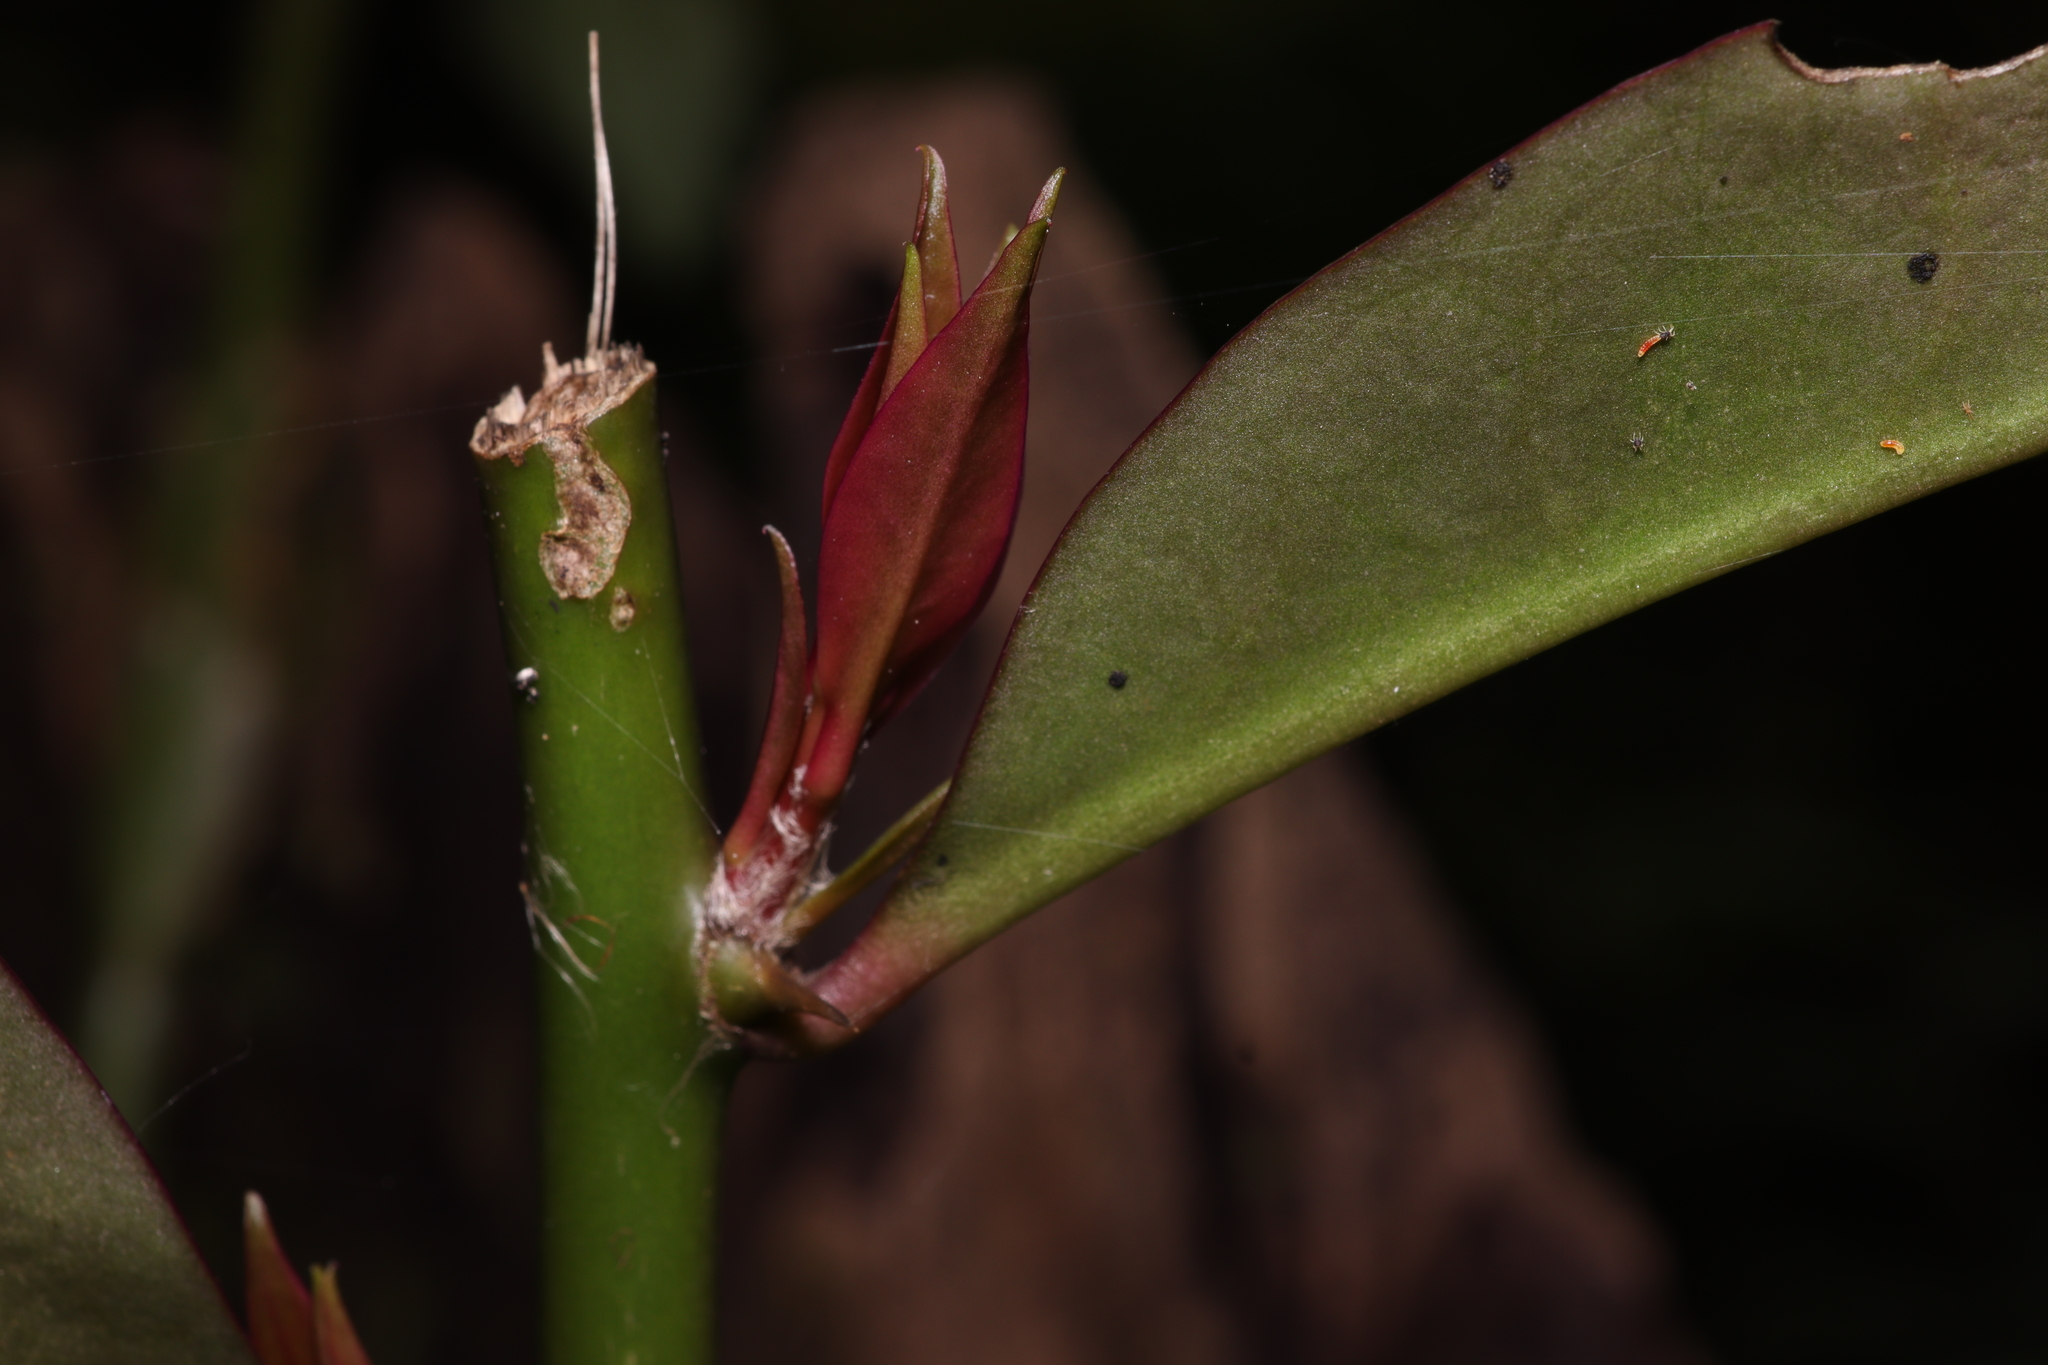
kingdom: Plantae
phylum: Tracheophyta
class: Magnoliopsida
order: Caryophyllales
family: Cactaceae
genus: Pereskia
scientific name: Pereskia aculeata
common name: Barbados gooseberry
